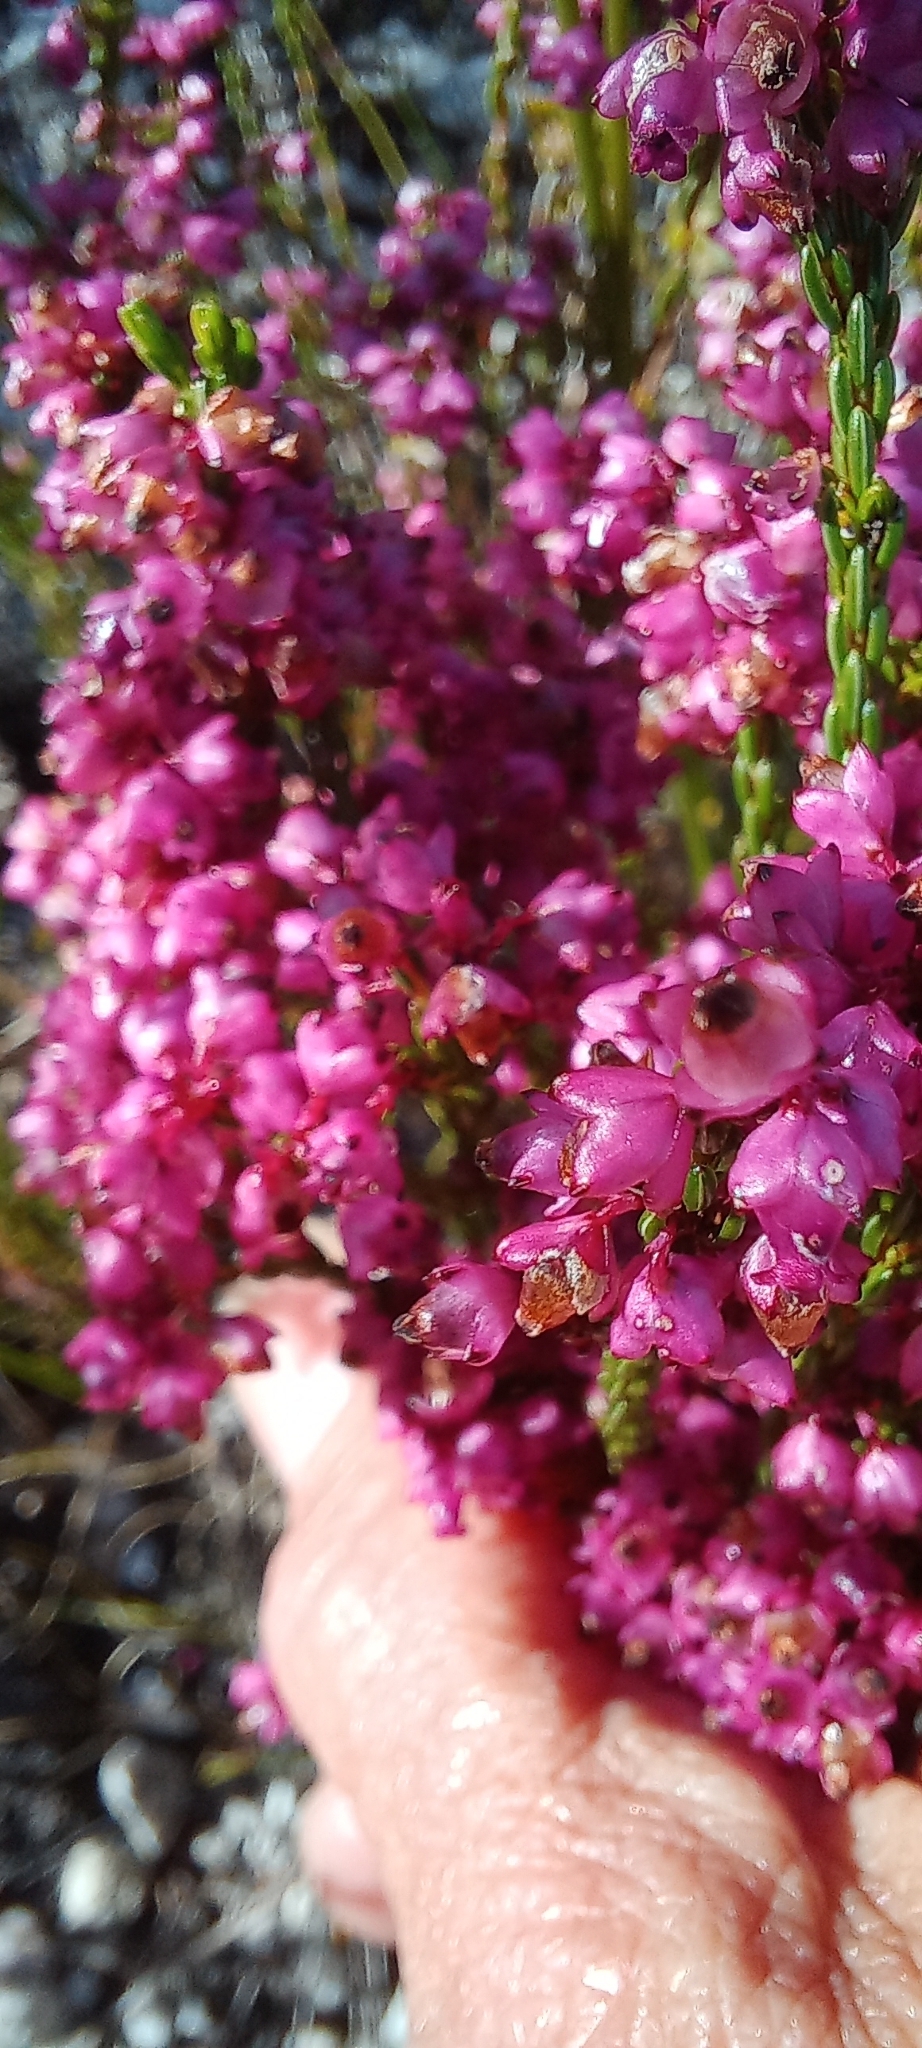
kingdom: Plantae
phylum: Tracheophyta
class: Magnoliopsida
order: Ericales
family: Ericaceae
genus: Erica
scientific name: Erica rhopalantha
